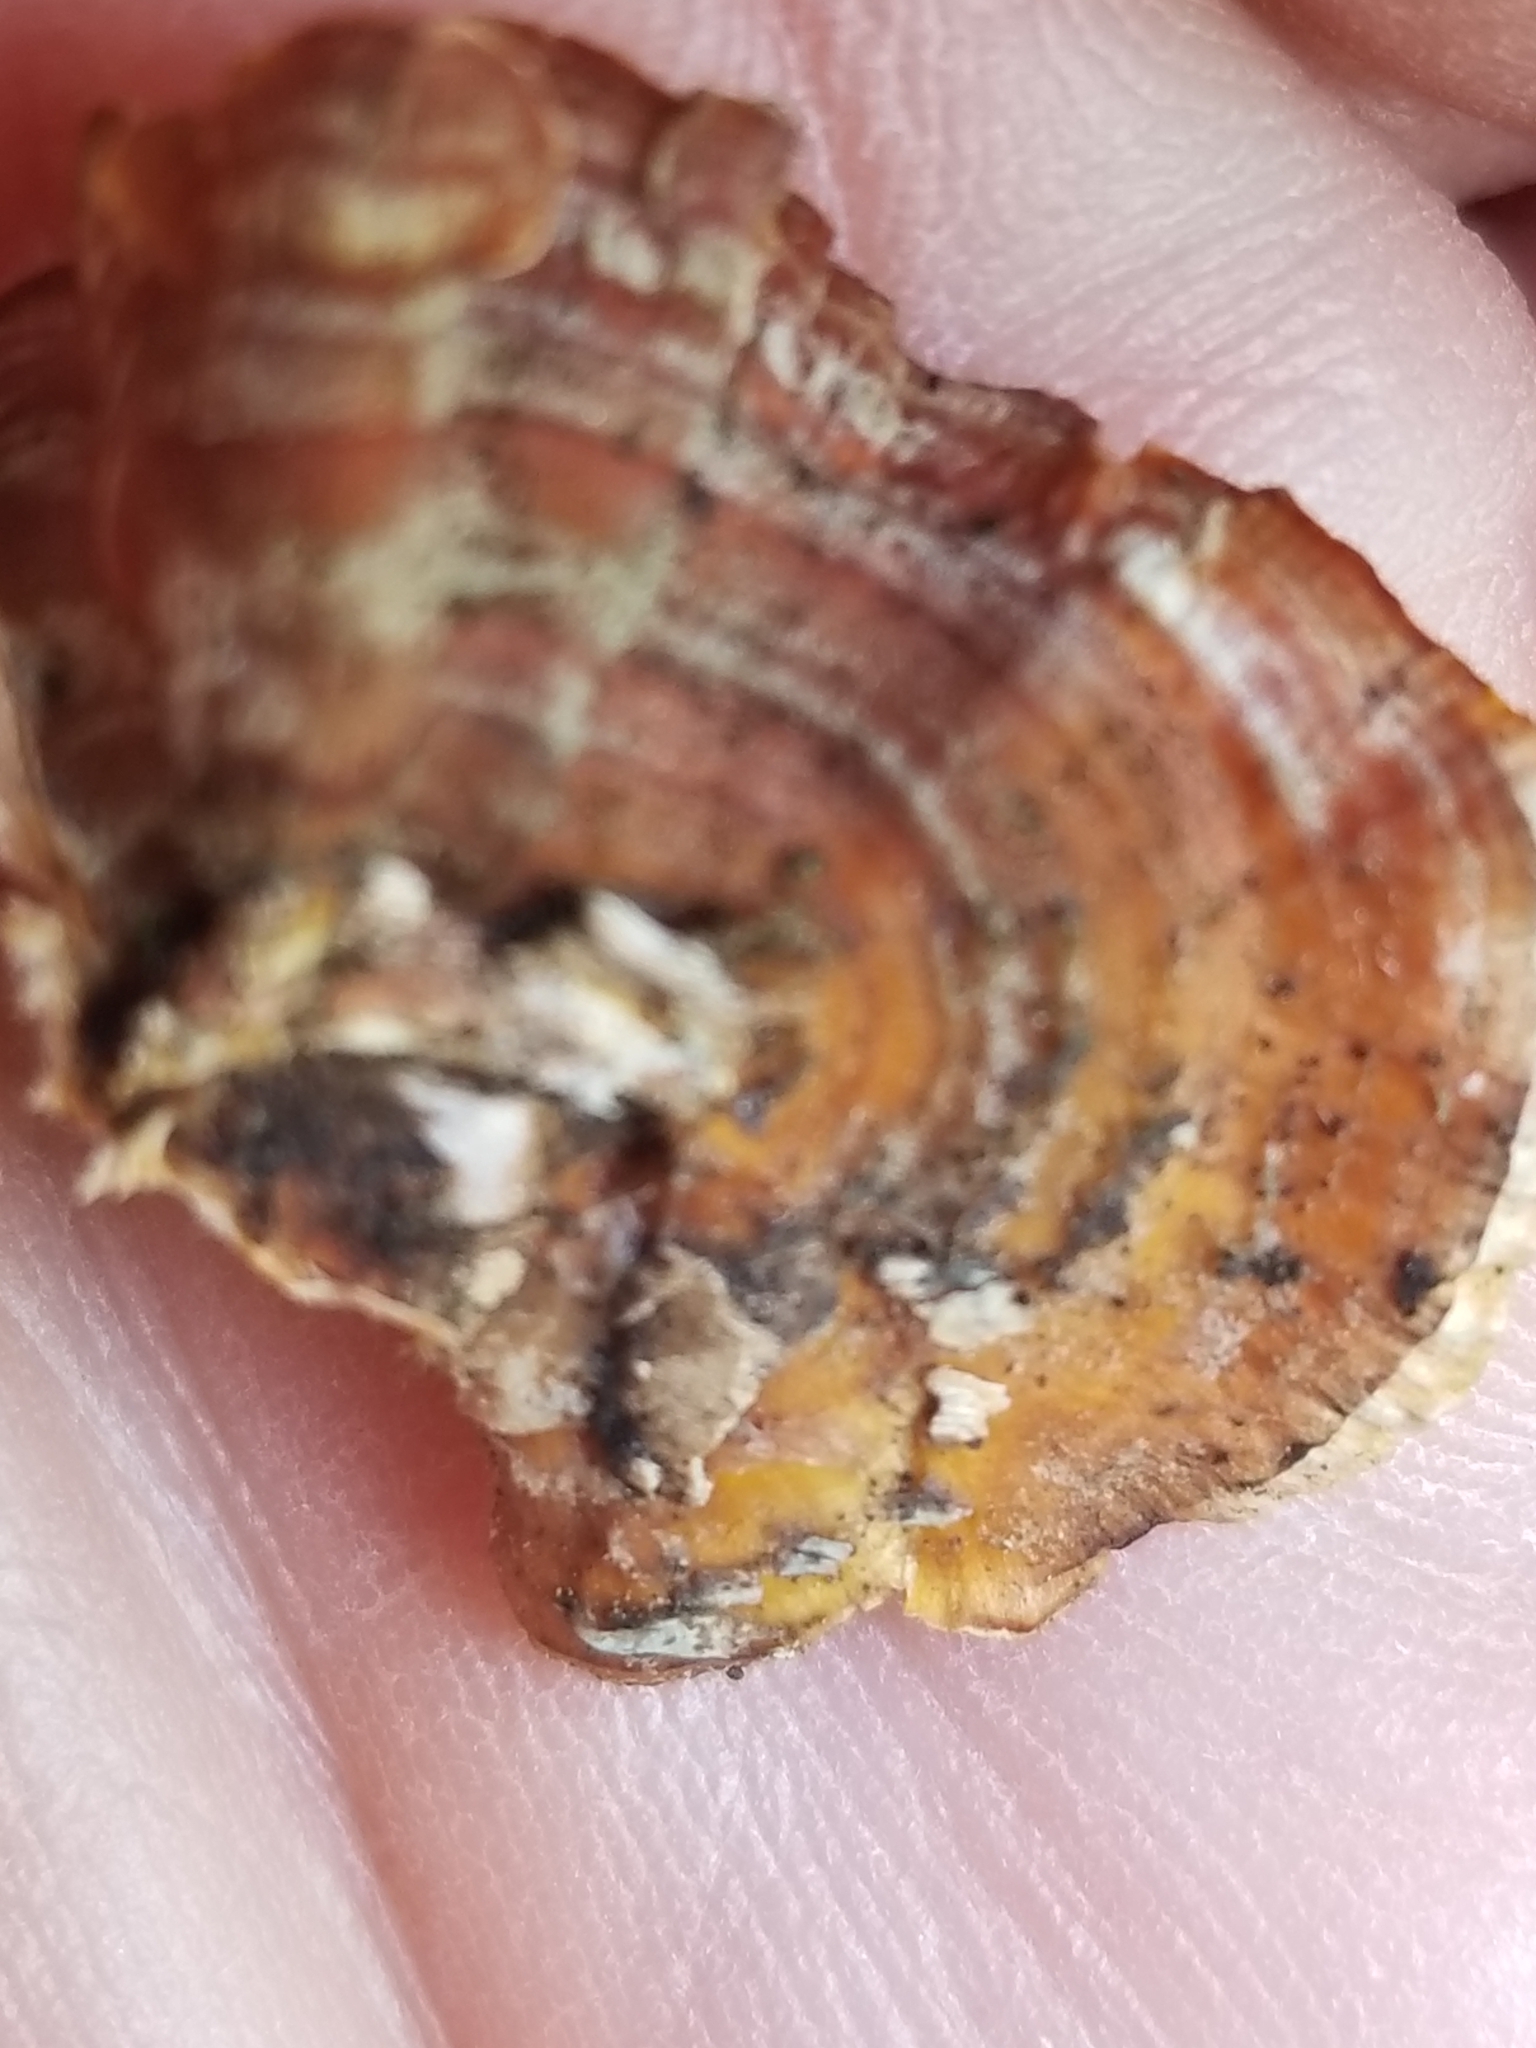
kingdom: Fungi
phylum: Basidiomycota
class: Agaricomycetes
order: Russulales
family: Stereaceae
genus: Stereum
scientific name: Stereum complicatum
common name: Crowded parchment
